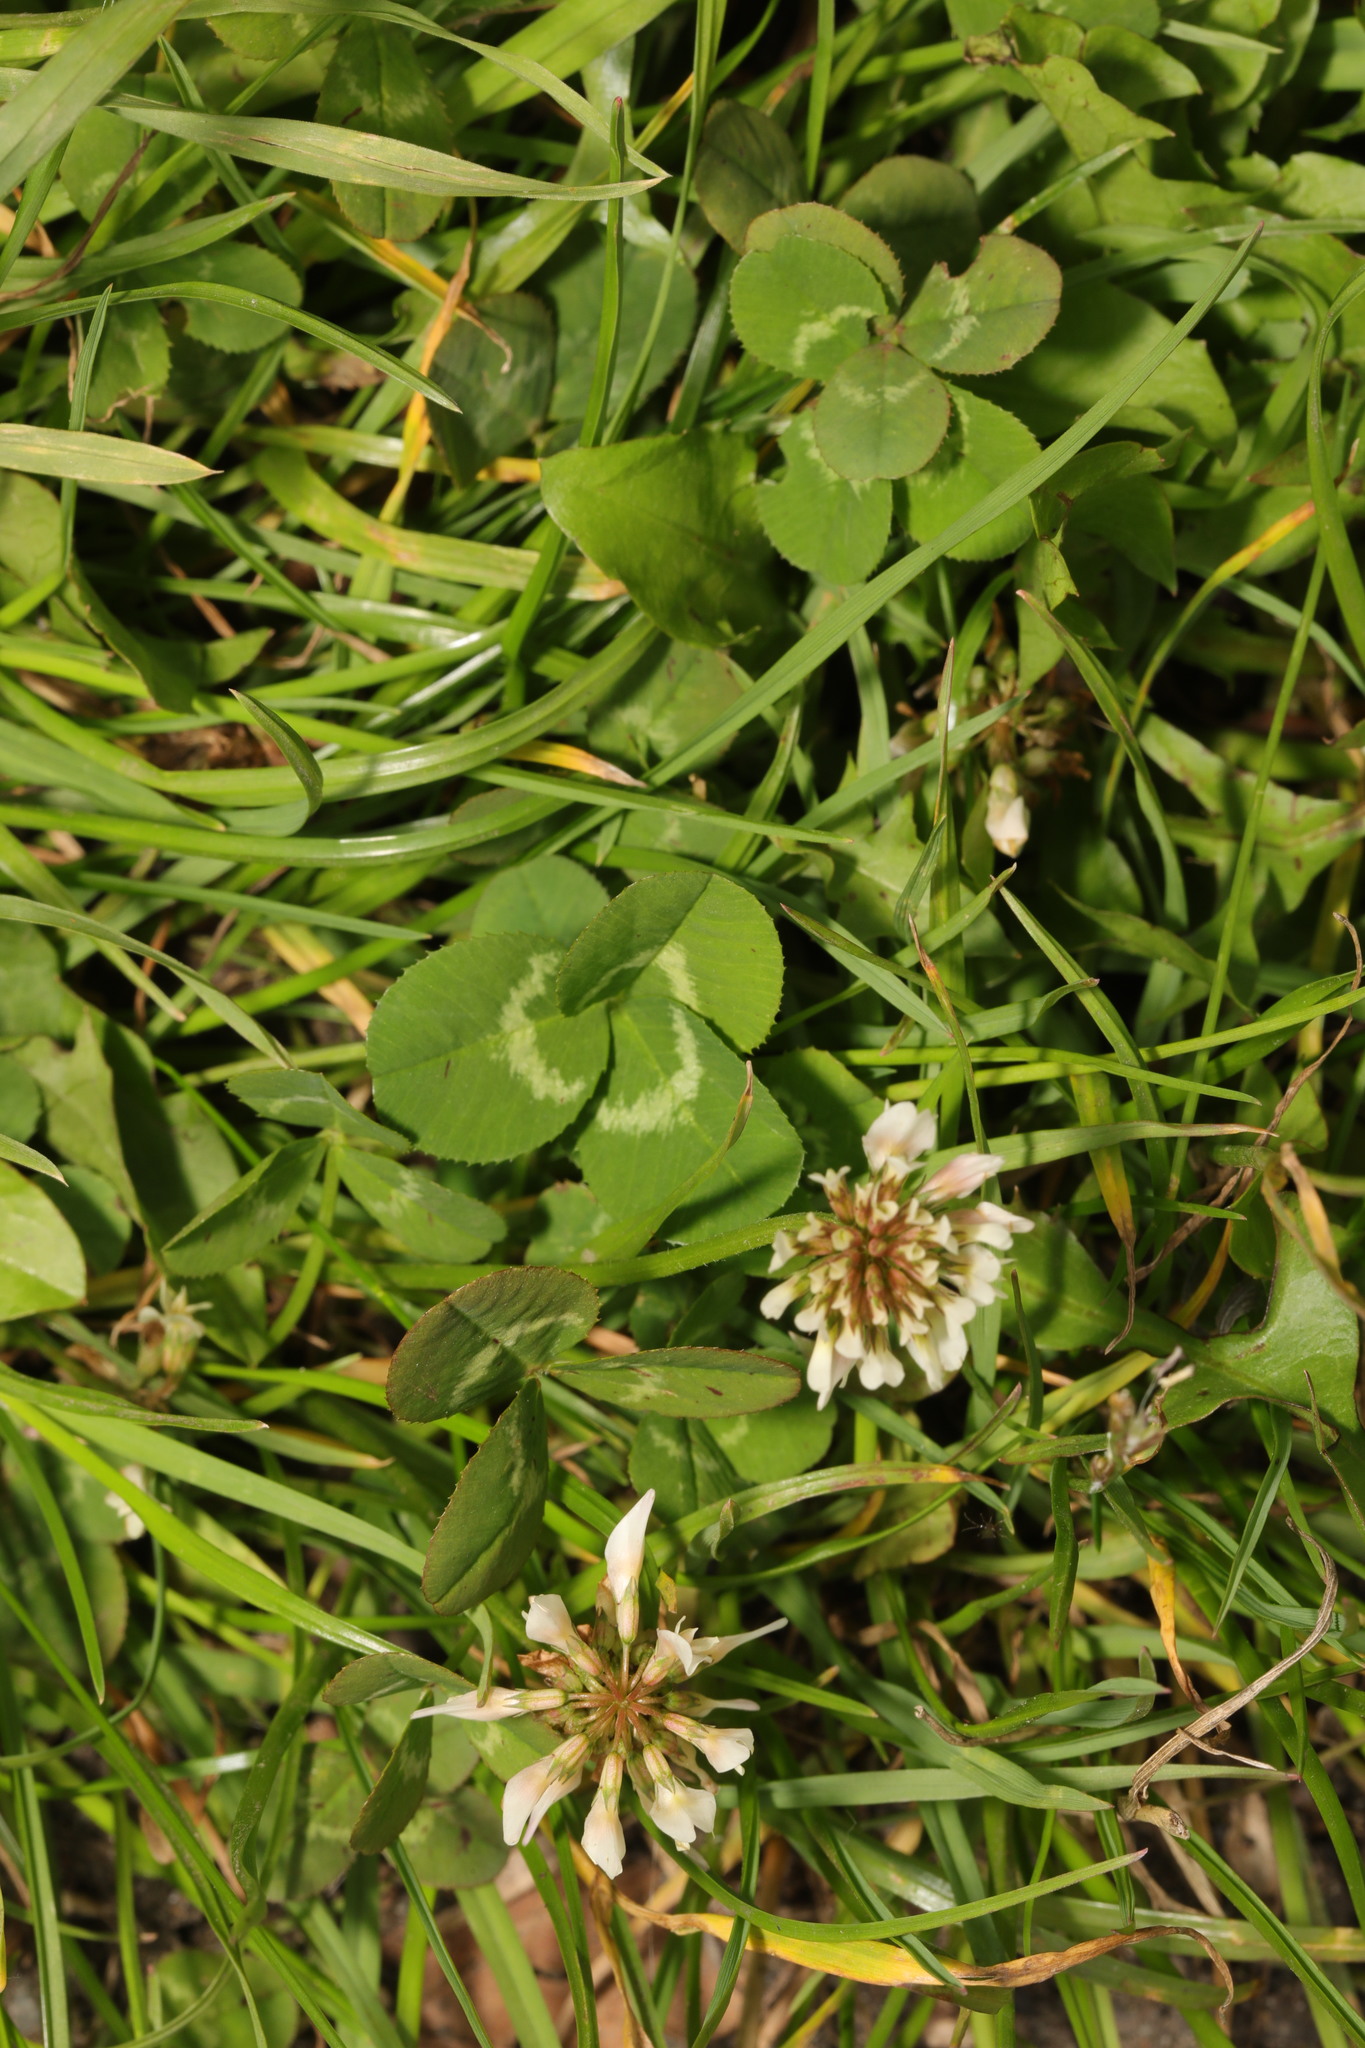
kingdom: Plantae
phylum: Tracheophyta
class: Magnoliopsida
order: Fabales
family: Fabaceae
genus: Trifolium
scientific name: Trifolium repens
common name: White clover
